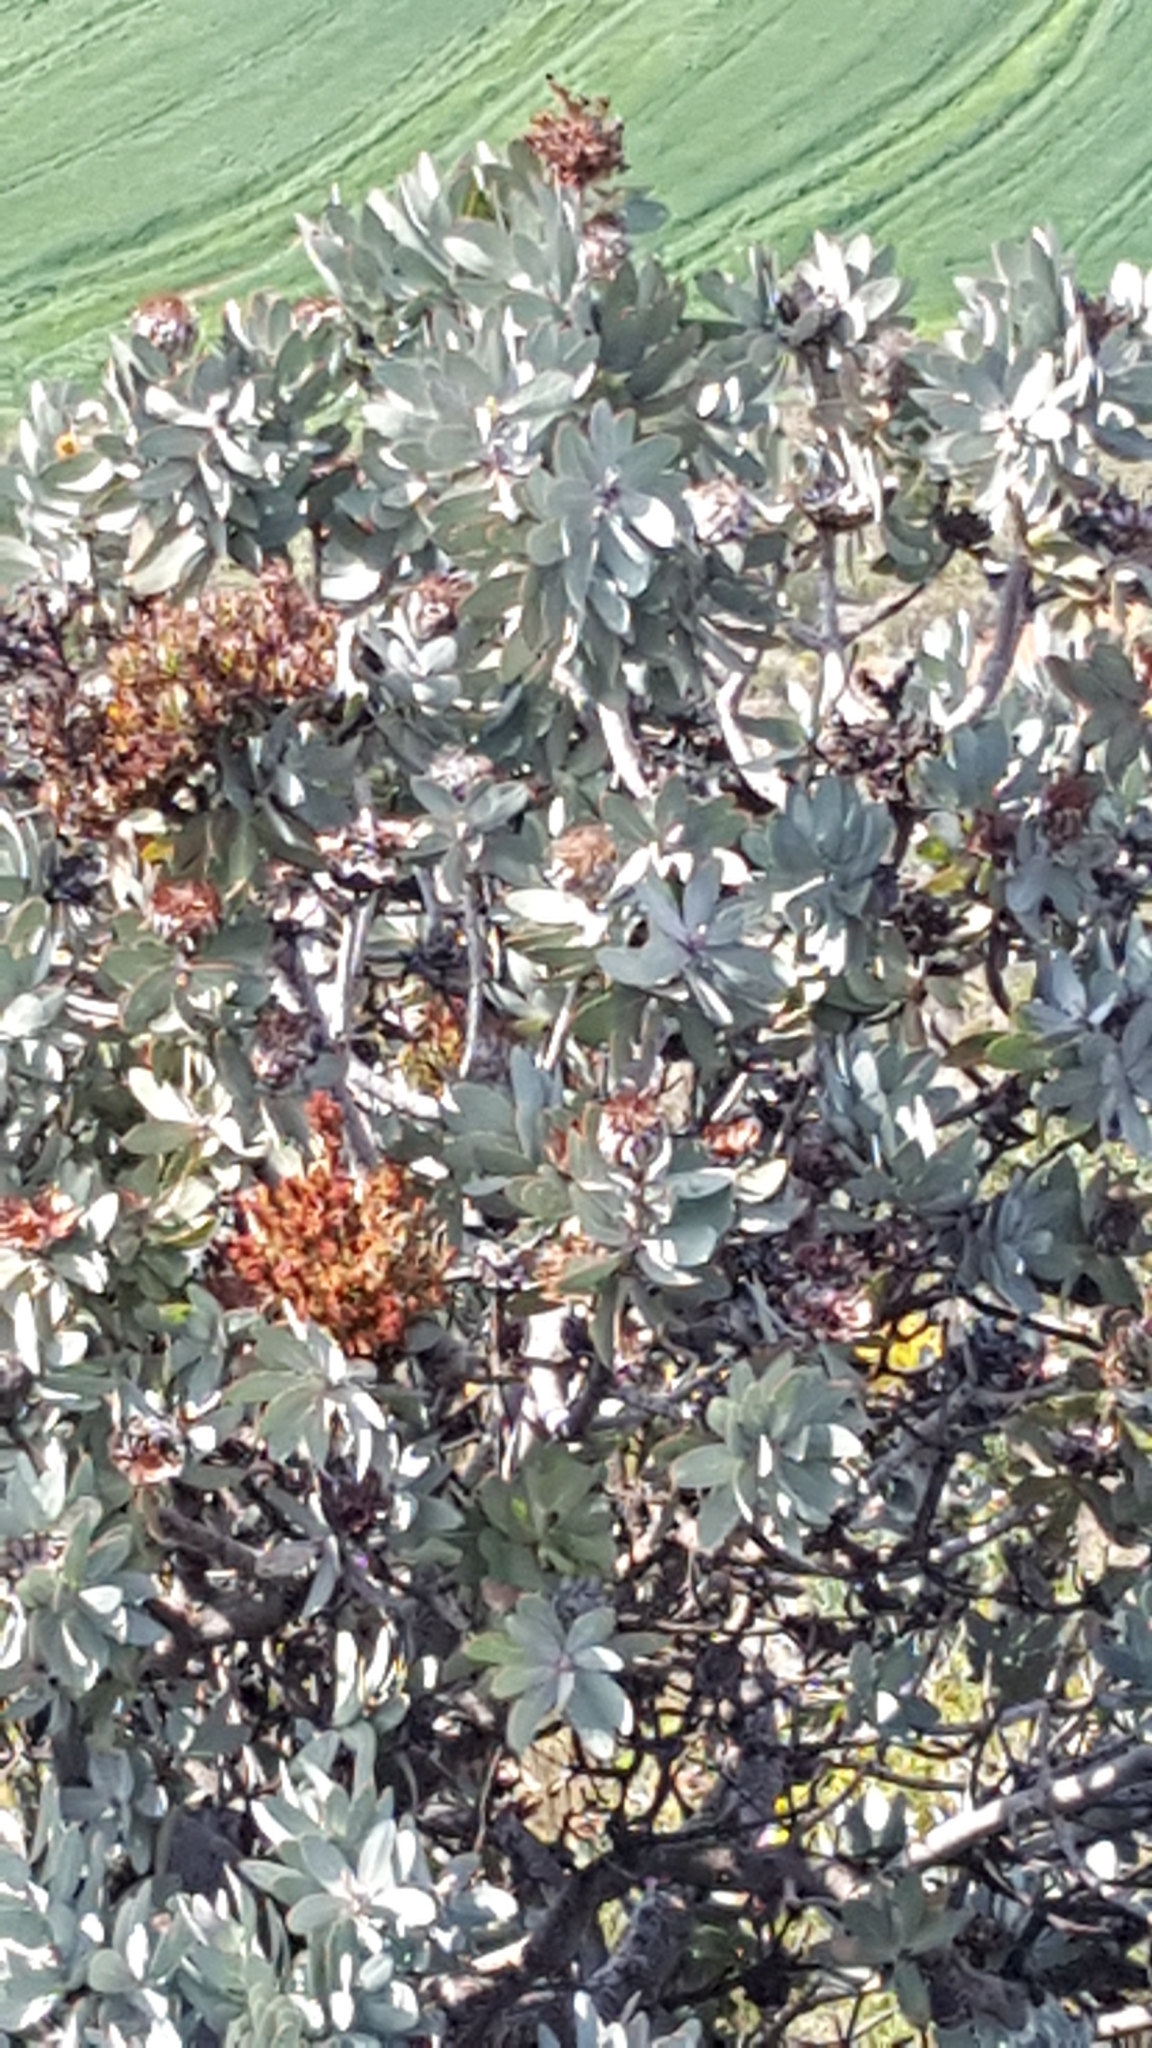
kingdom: Plantae
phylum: Tracheophyta
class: Magnoliopsida
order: Proteales
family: Proteaceae
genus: Protea
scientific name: Protea nitida
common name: Tree protea
